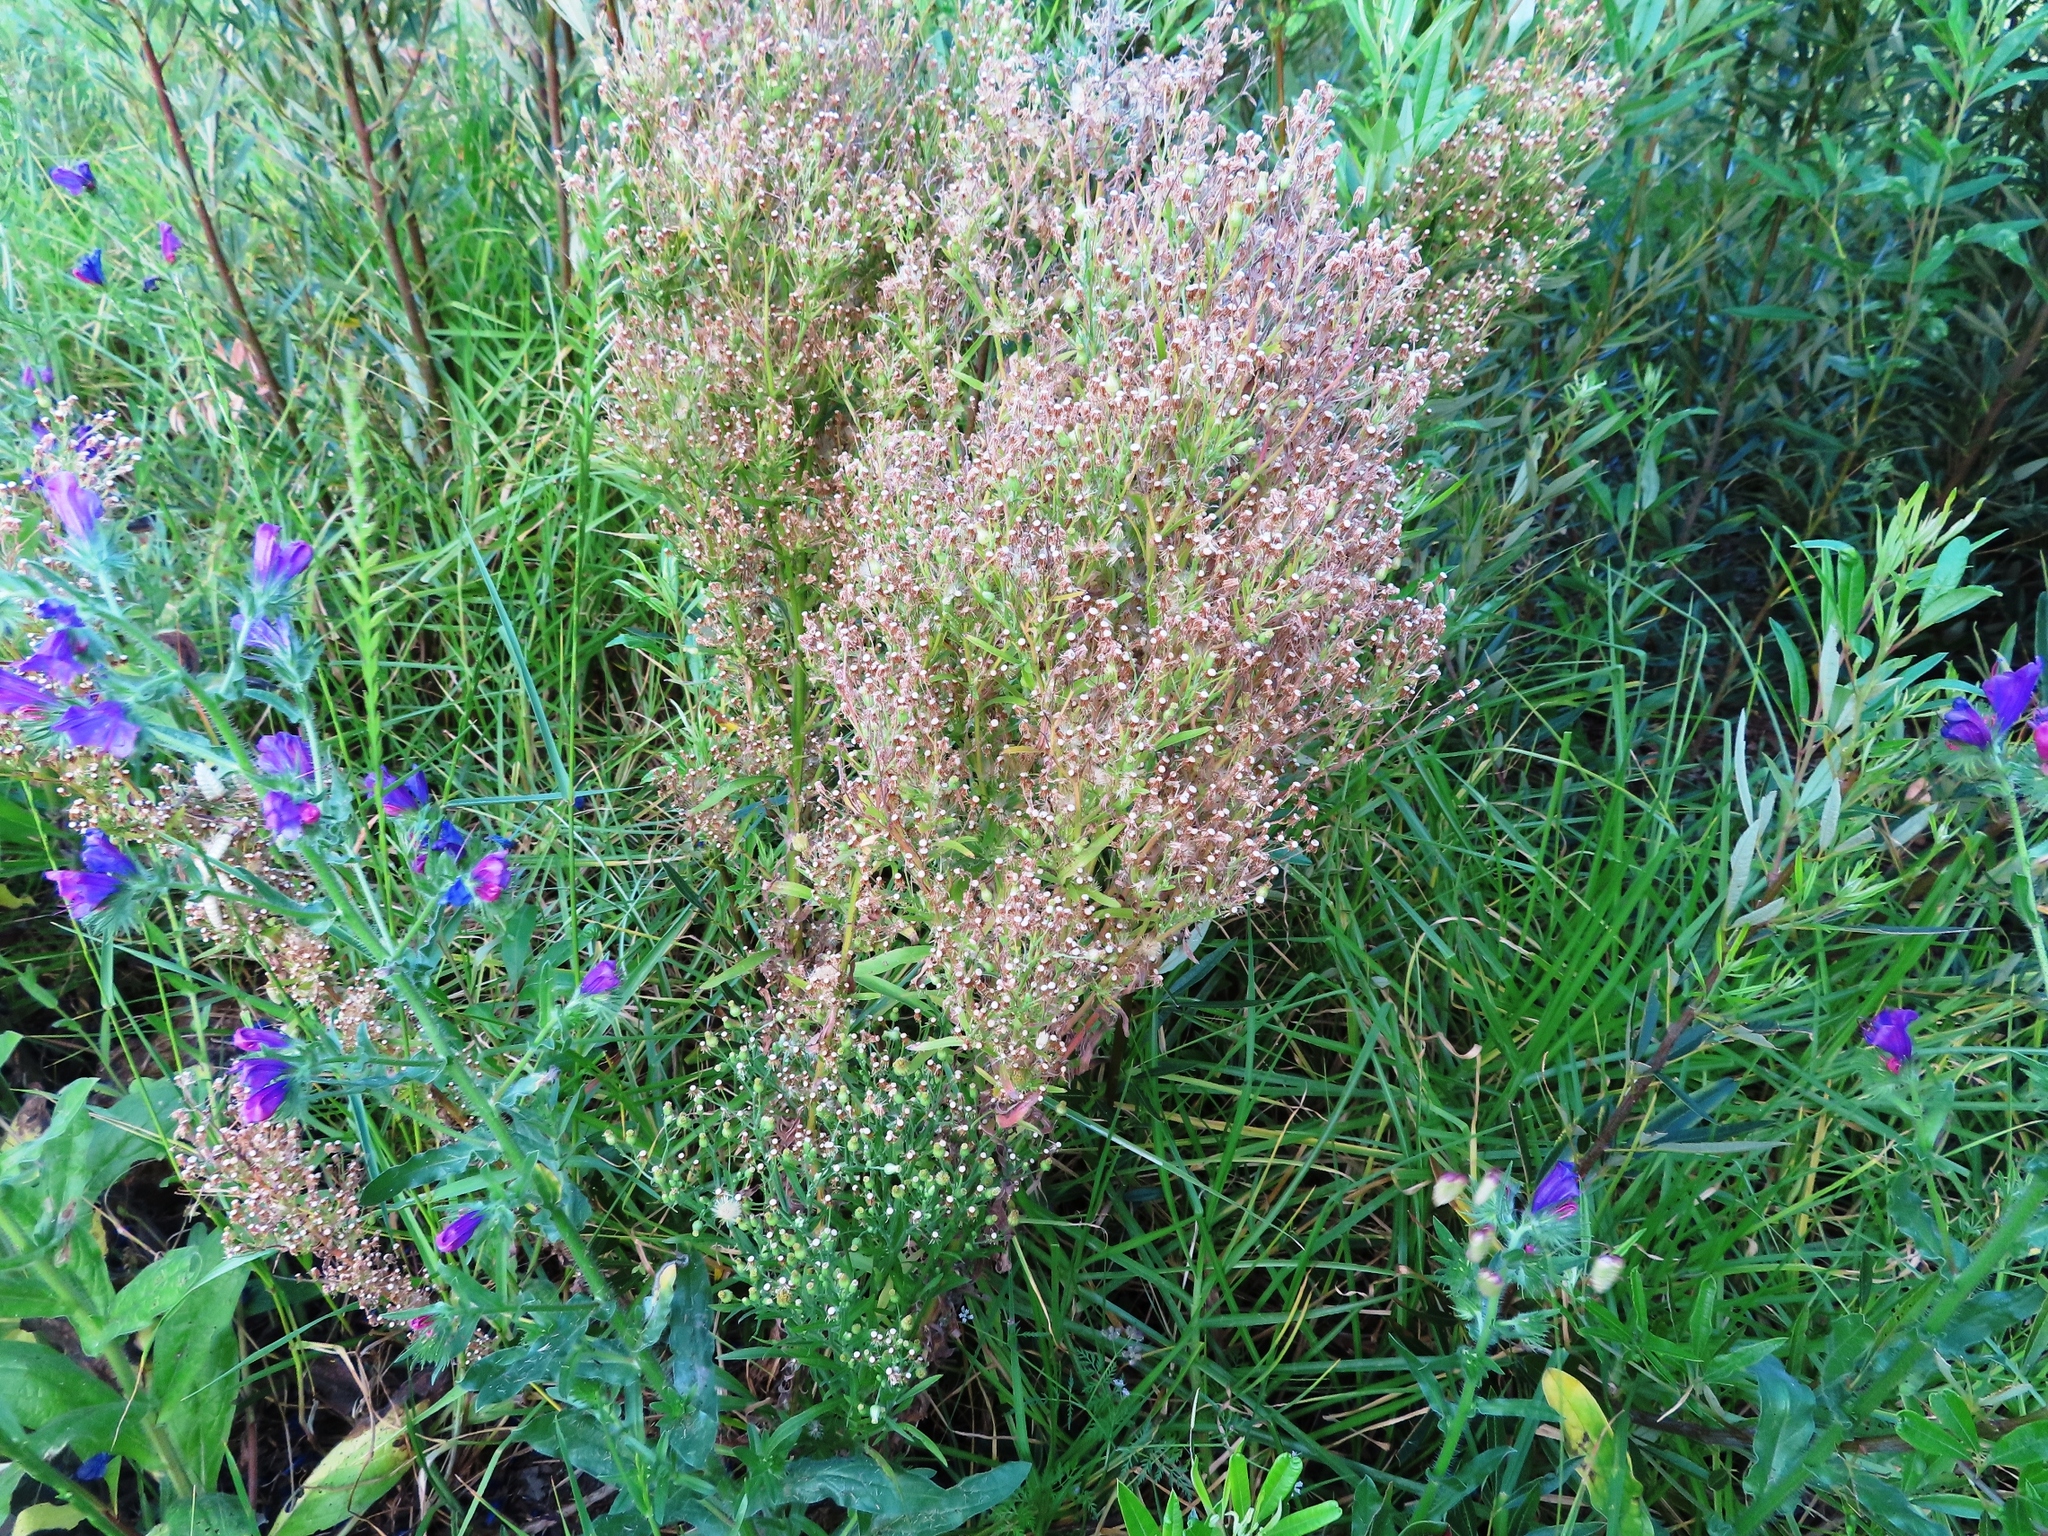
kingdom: Plantae
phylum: Tracheophyta
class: Magnoliopsida
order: Asterales
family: Asteraceae
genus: Erigeron
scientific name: Erigeron sumatrensis
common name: Daisy
